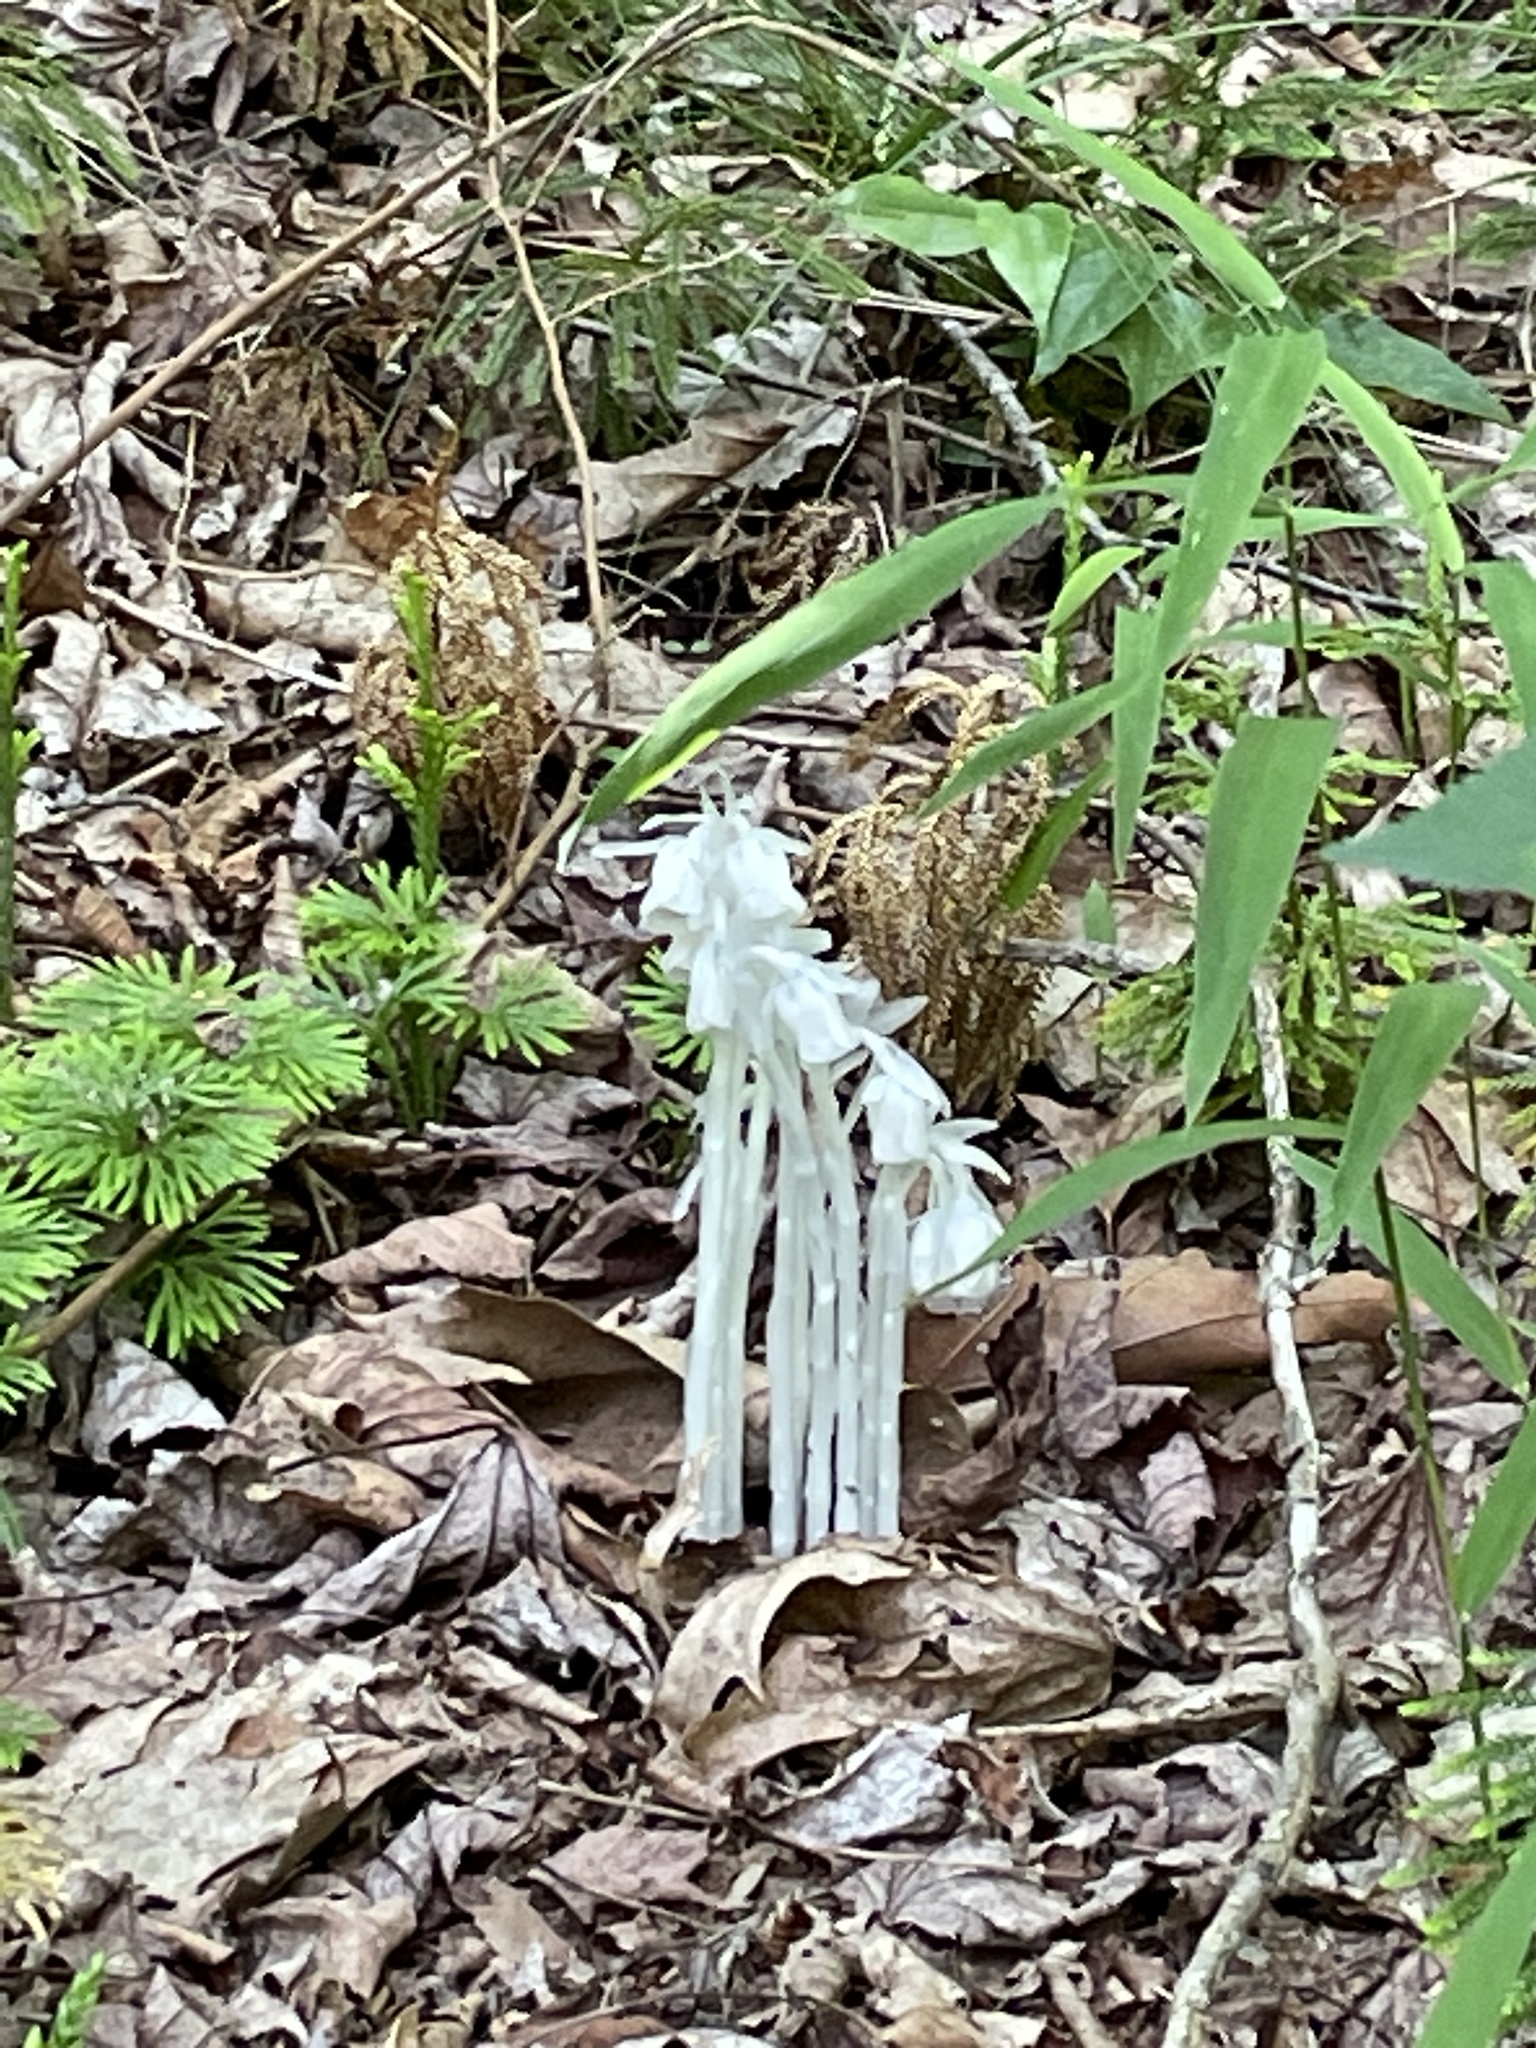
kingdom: Plantae
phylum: Tracheophyta
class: Magnoliopsida
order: Ericales
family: Ericaceae
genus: Monotropa
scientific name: Monotropa uniflora
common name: Convulsion root
